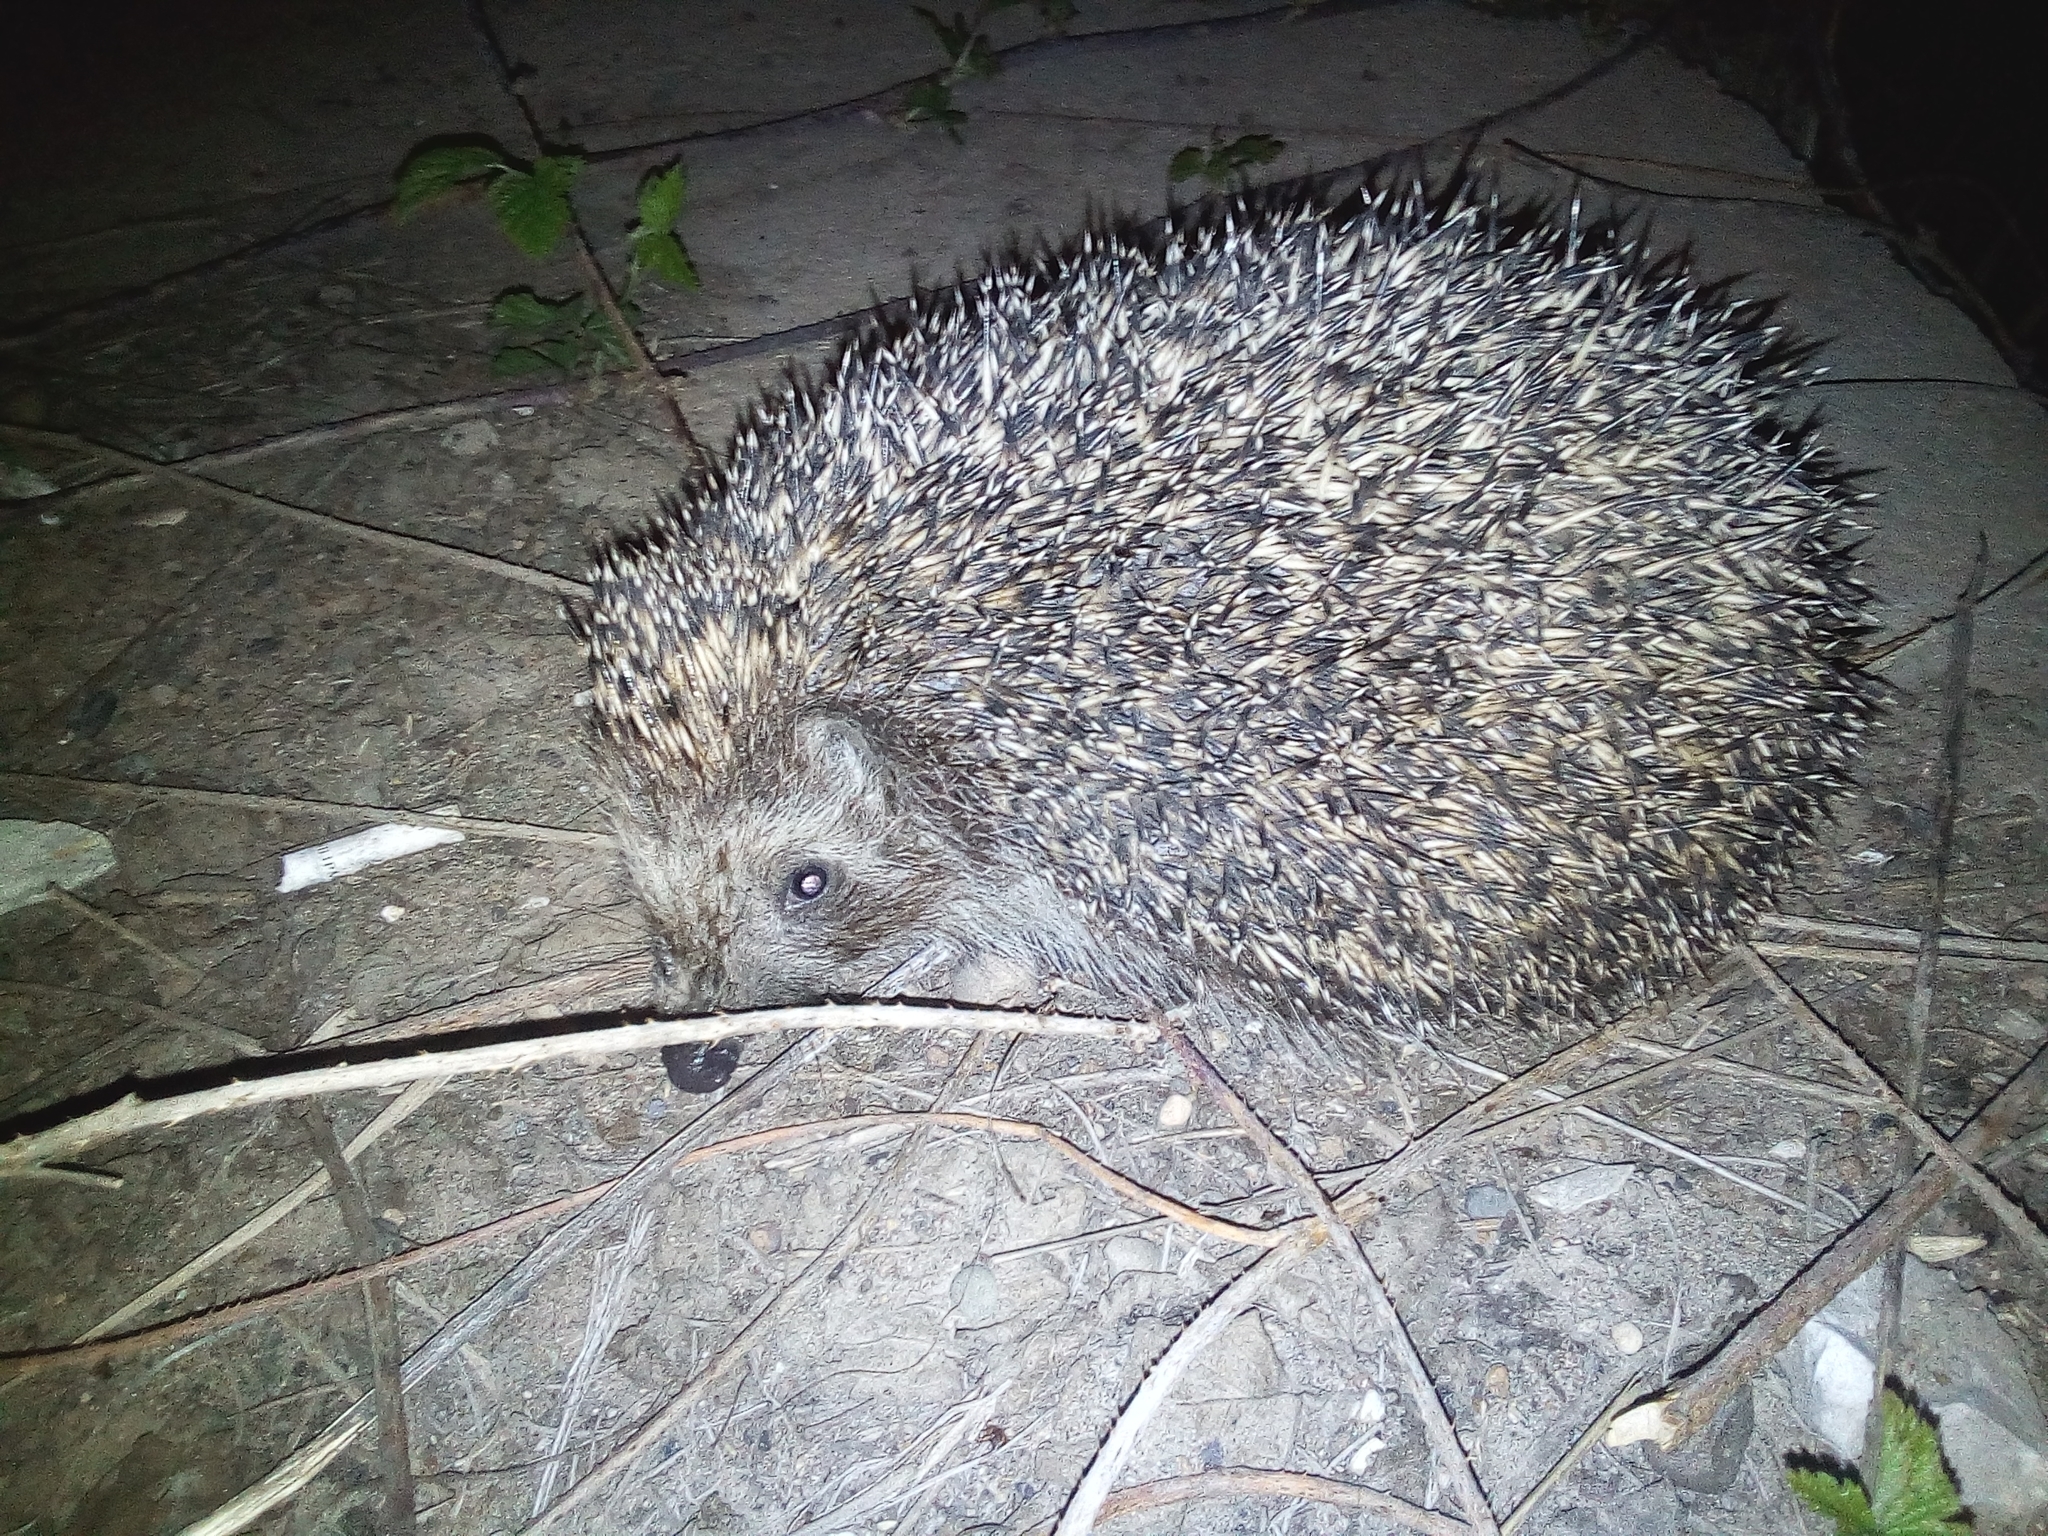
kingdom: Animalia
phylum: Chordata
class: Mammalia
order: Erinaceomorpha
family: Erinaceidae
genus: Erinaceus
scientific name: Erinaceus roumanicus
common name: Northern white-breasted hedgehog
